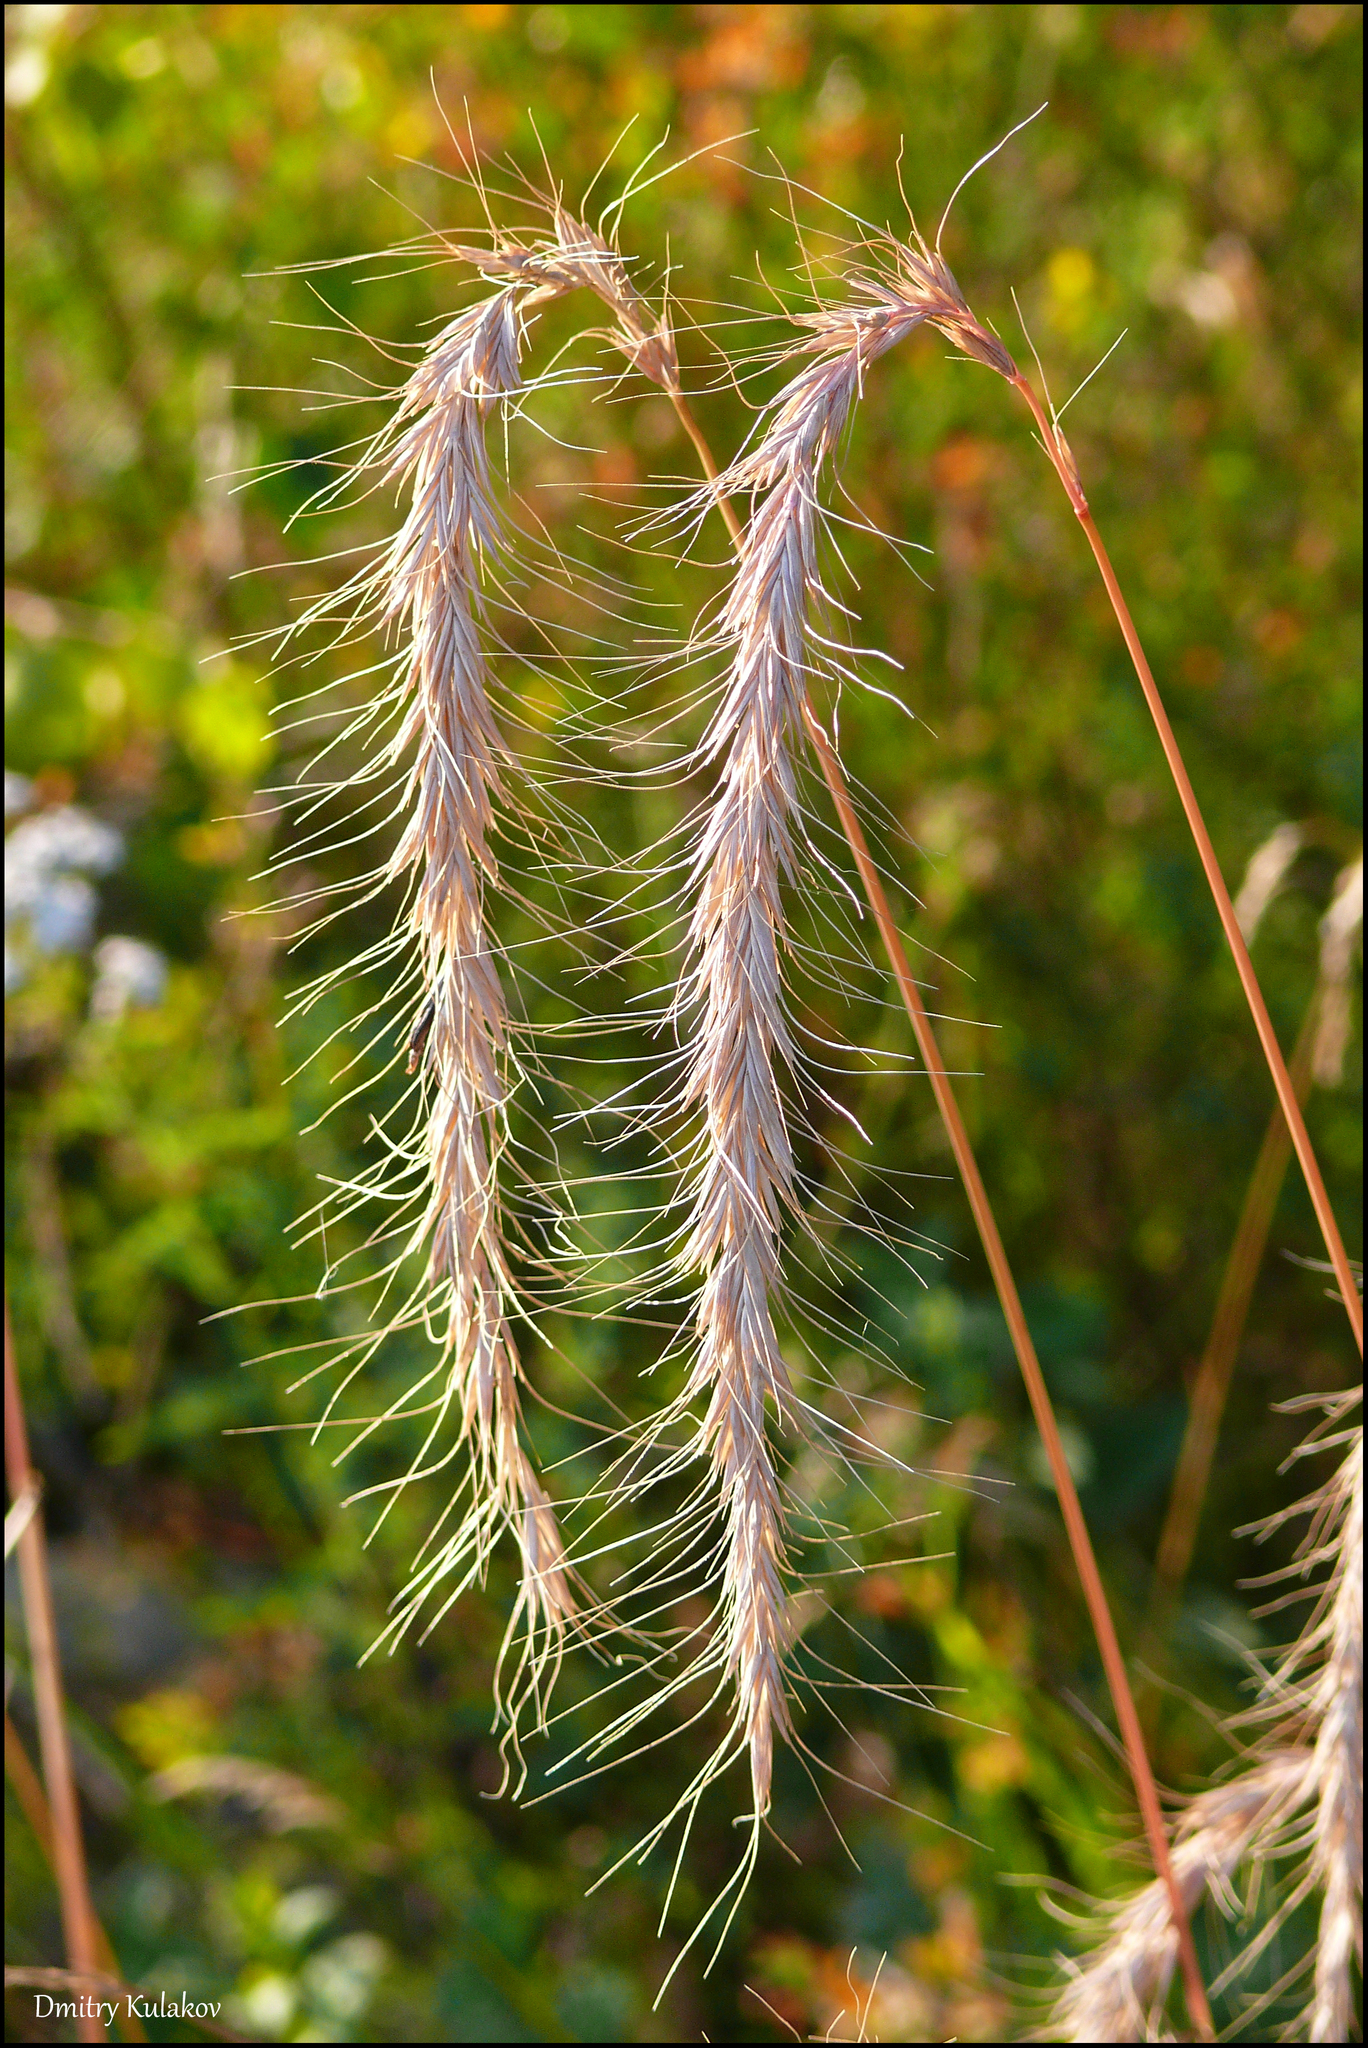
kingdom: Plantae
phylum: Tracheophyta
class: Liliopsida
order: Poales
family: Poaceae
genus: Elymus
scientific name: Elymus sibiricus
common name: Siberian wildrye
